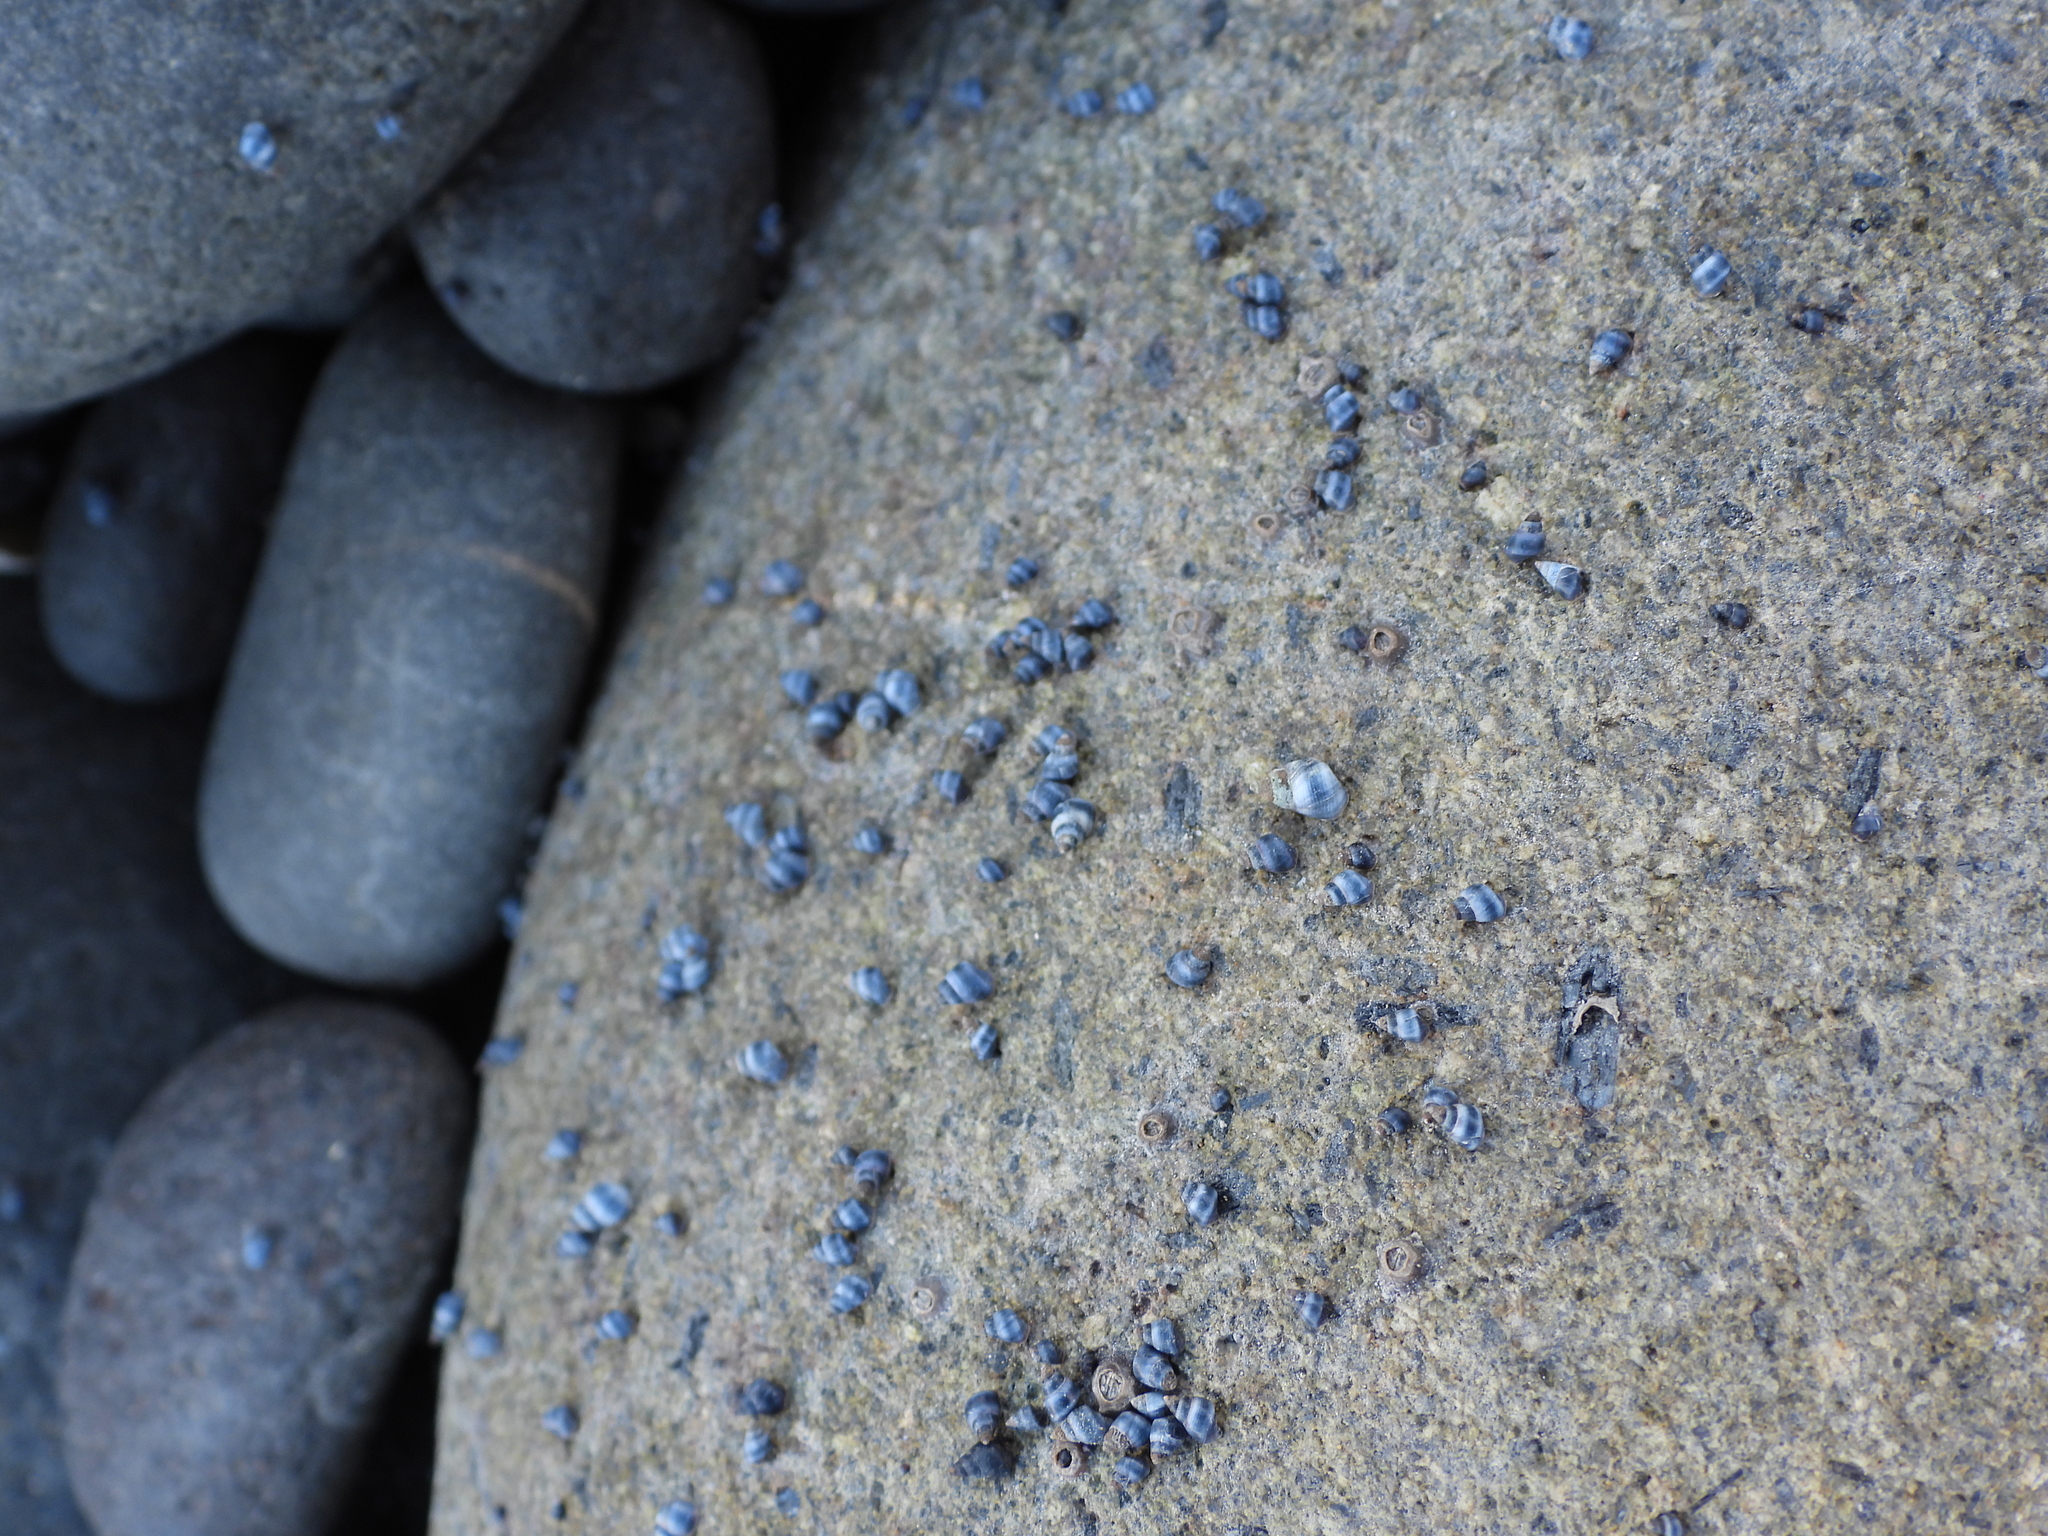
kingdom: Animalia
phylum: Mollusca
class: Gastropoda
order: Littorinimorpha
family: Littorinidae
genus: Austrolittorina
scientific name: Austrolittorina antipodum
